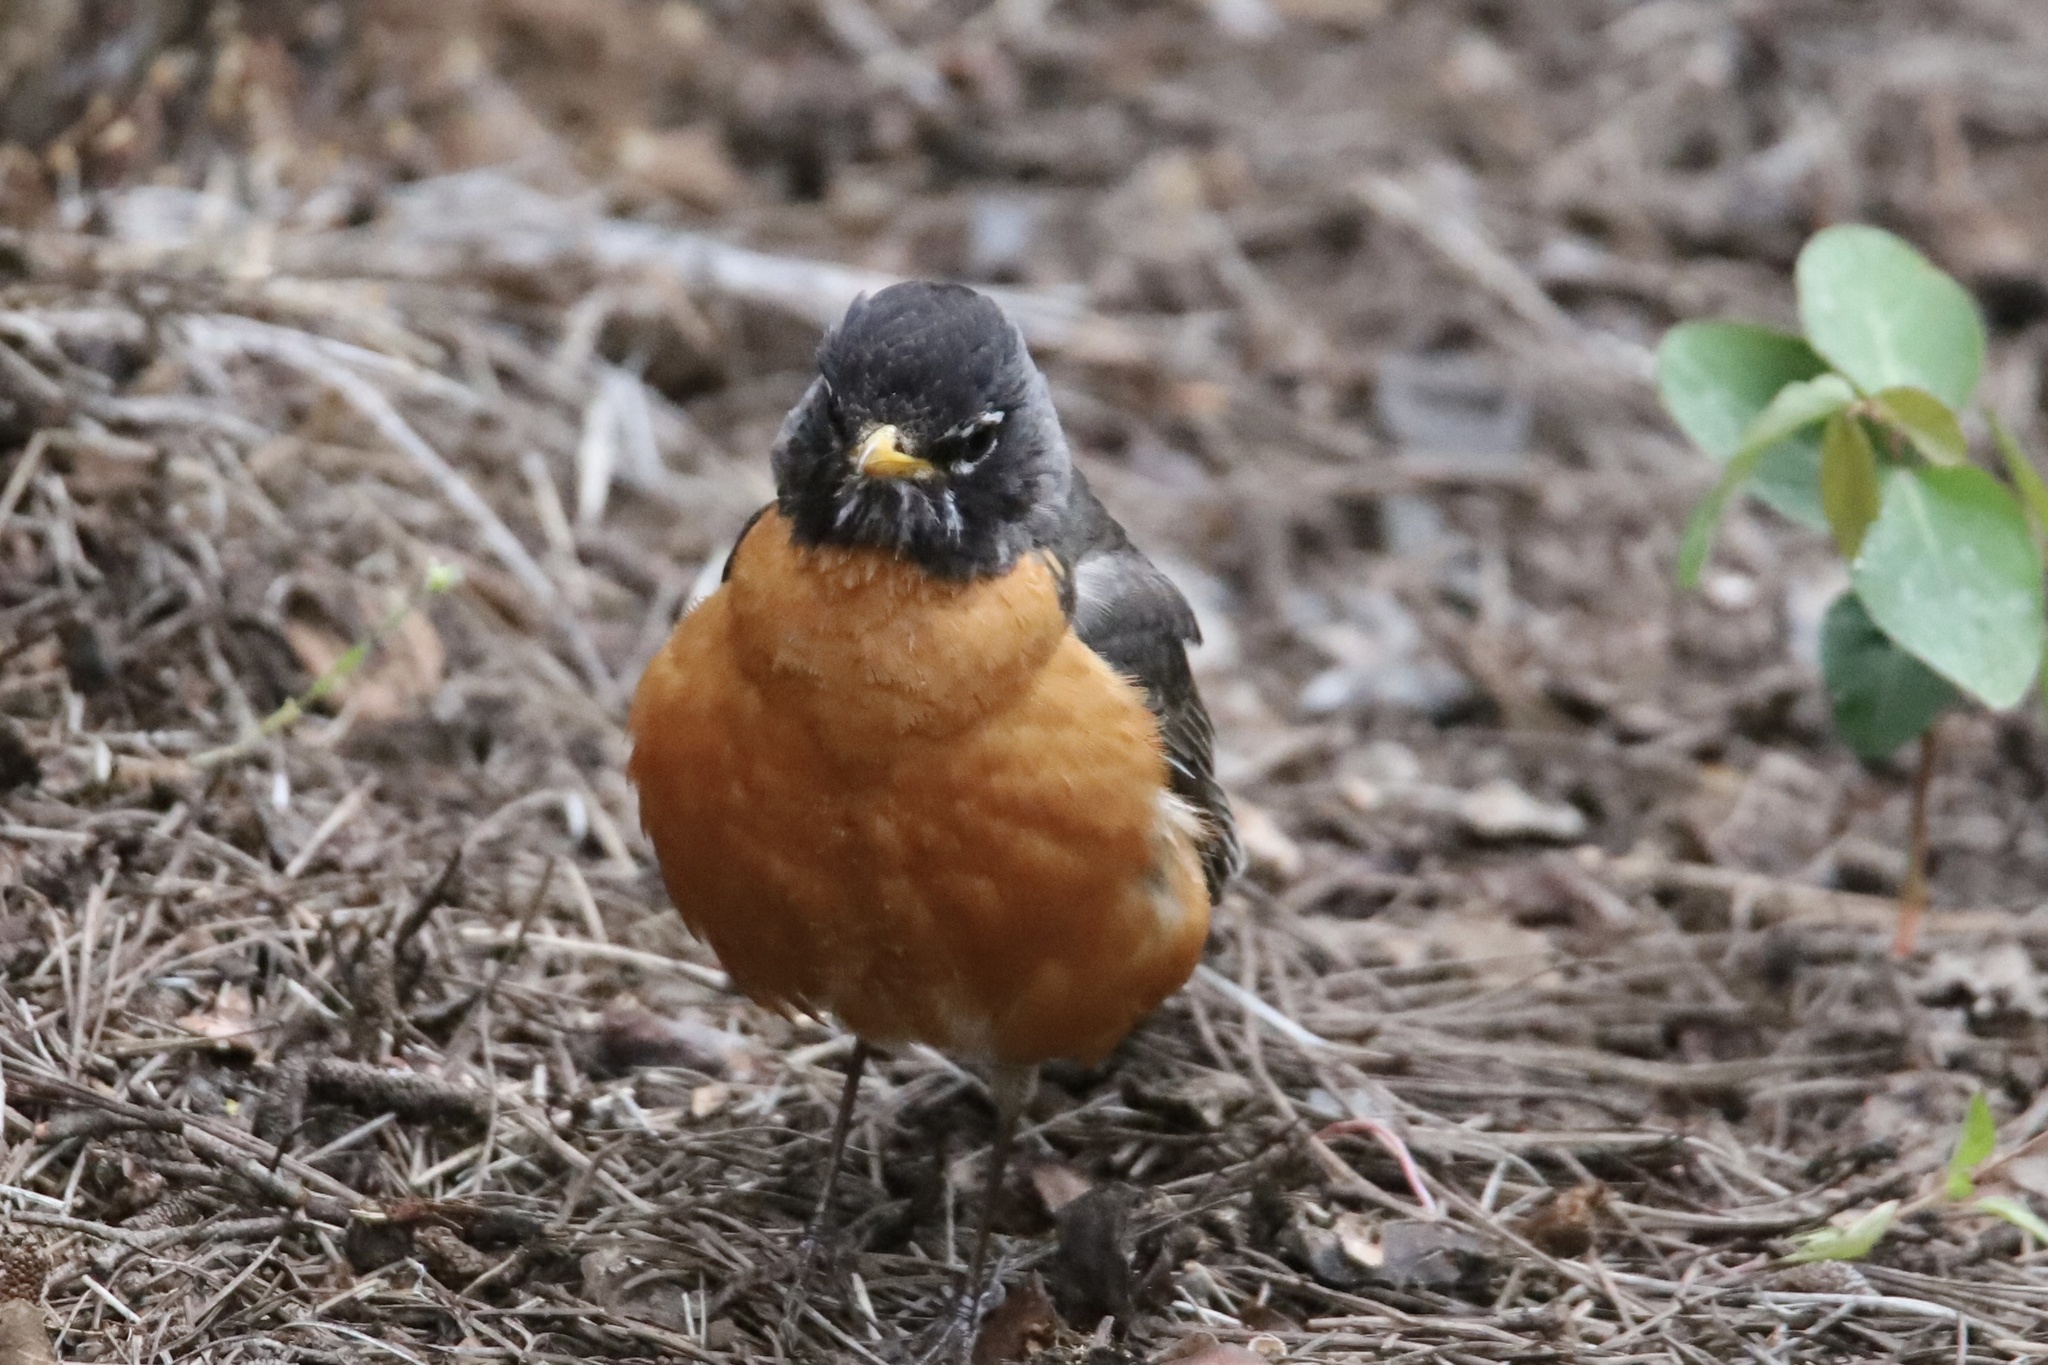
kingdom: Animalia
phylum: Chordata
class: Aves
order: Passeriformes
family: Turdidae
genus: Turdus
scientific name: Turdus migratorius
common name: American robin
